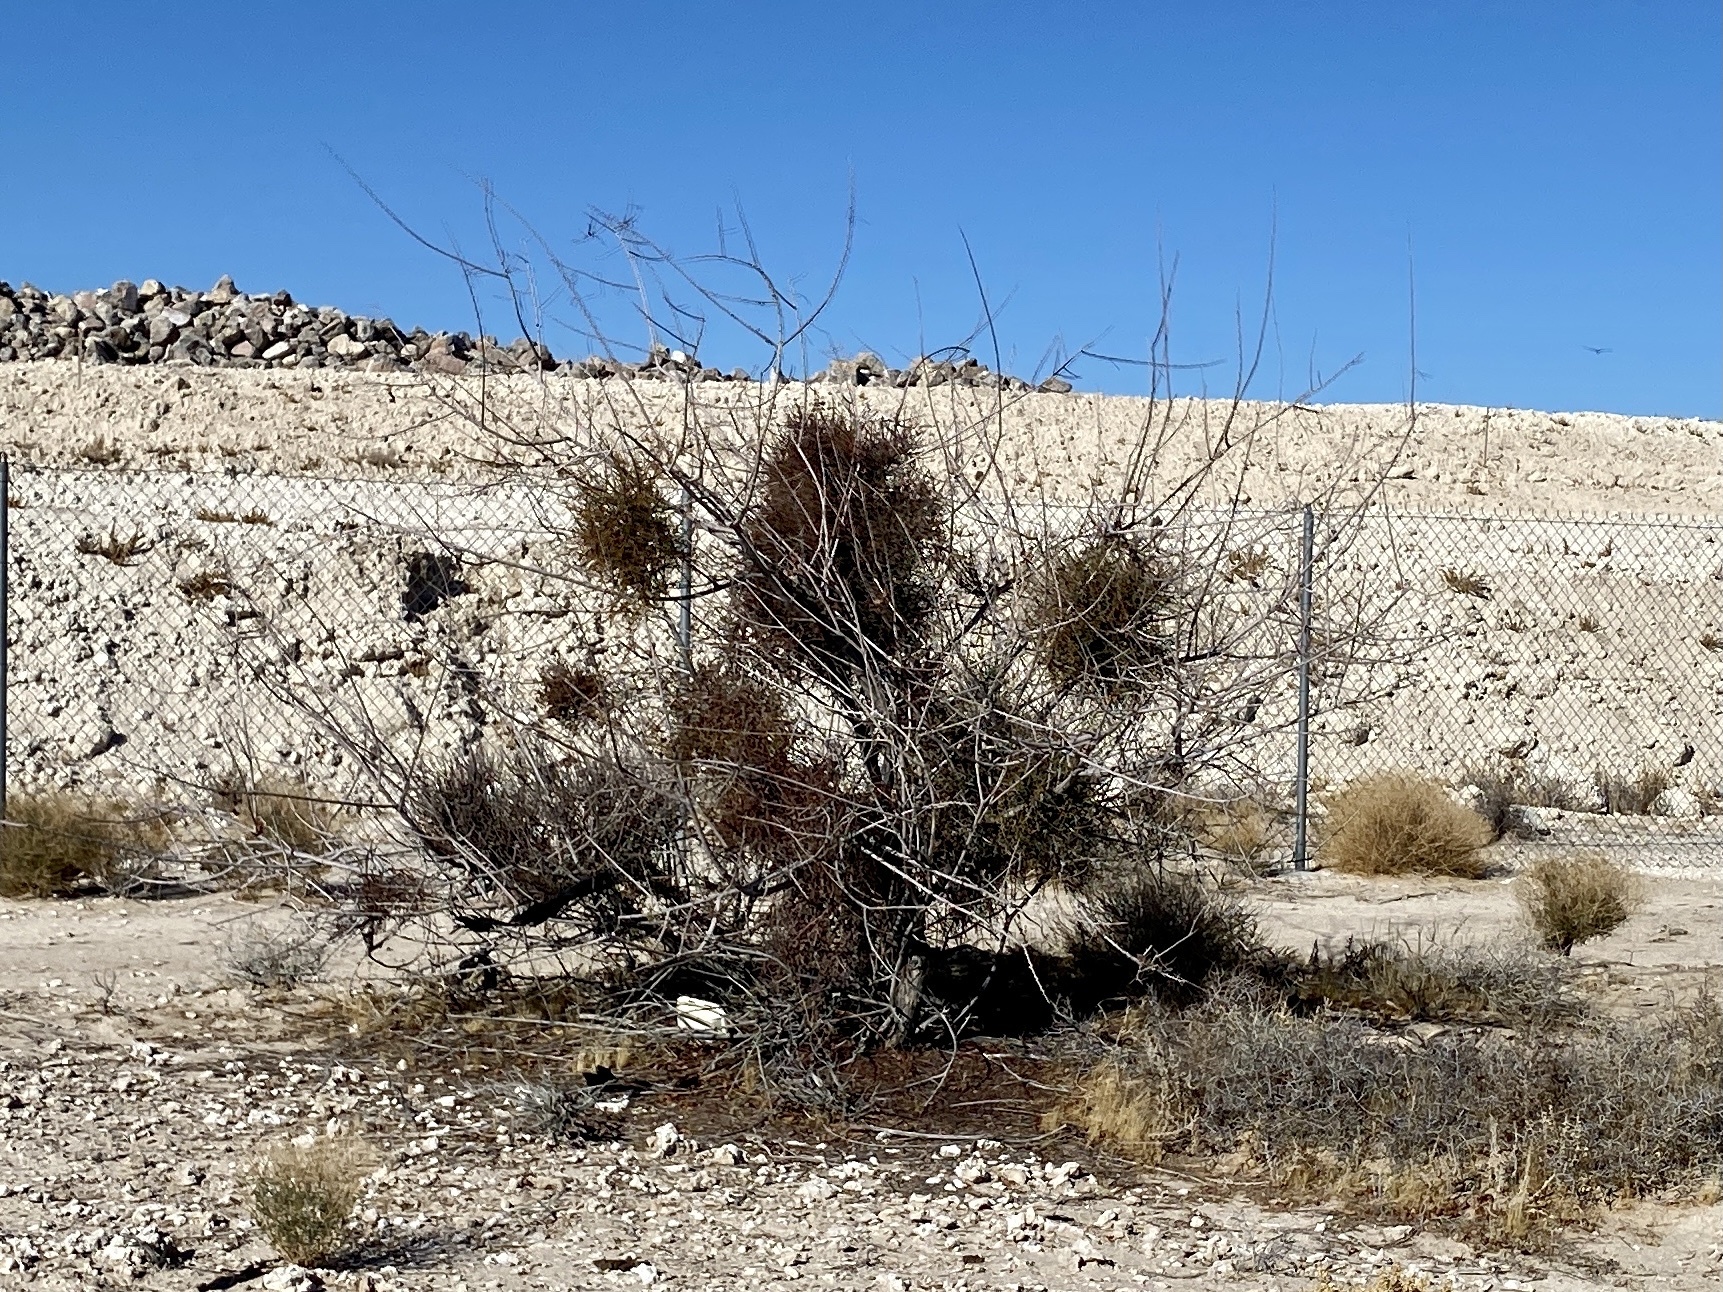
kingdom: Plantae
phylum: Tracheophyta
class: Magnoliopsida
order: Fabales
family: Fabaceae
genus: Senegalia
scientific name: Senegalia greggii
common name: Texas-mimosa
